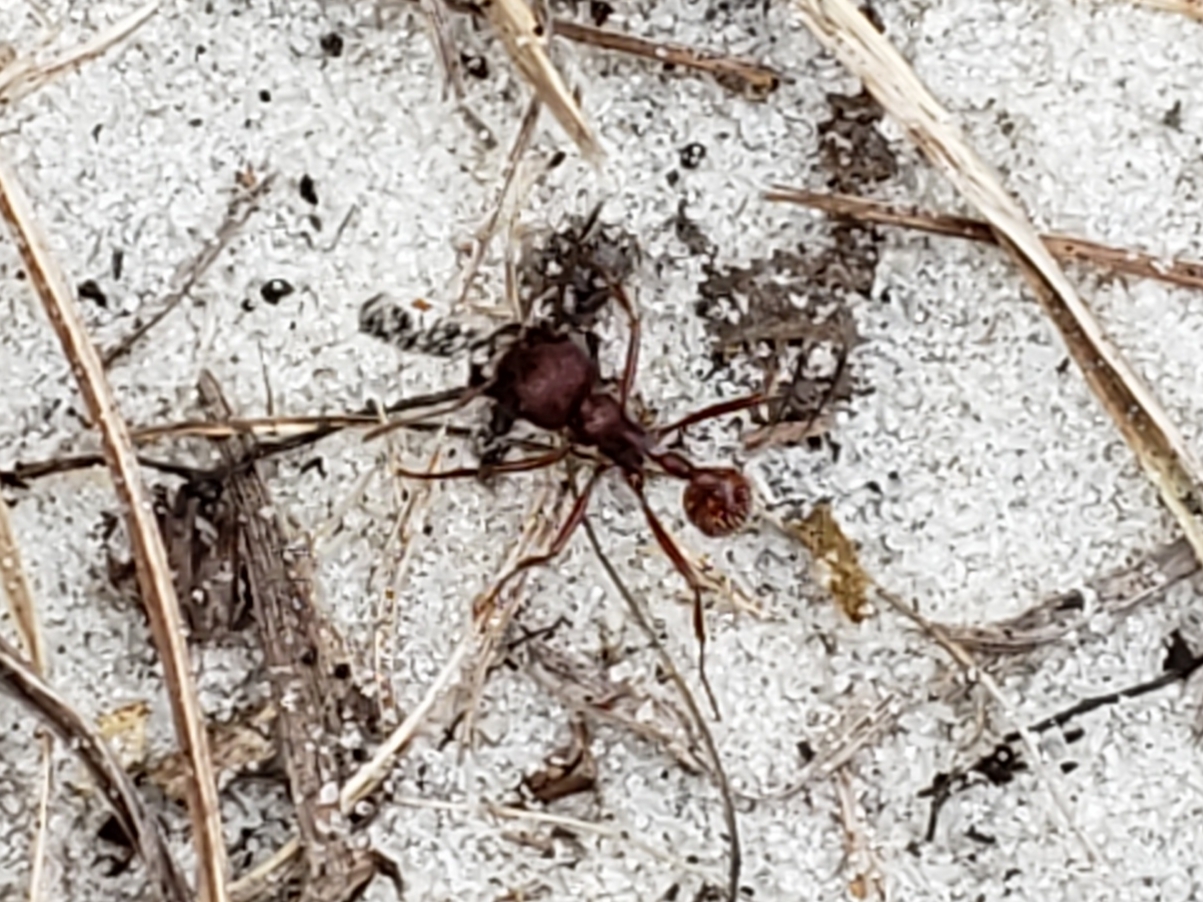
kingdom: Animalia
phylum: Arthropoda
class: Insecta
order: Hymenoptera
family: Formicidae
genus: Pogonomyrmex
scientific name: Pogonomyrmex badius
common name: Florida harvester ant
